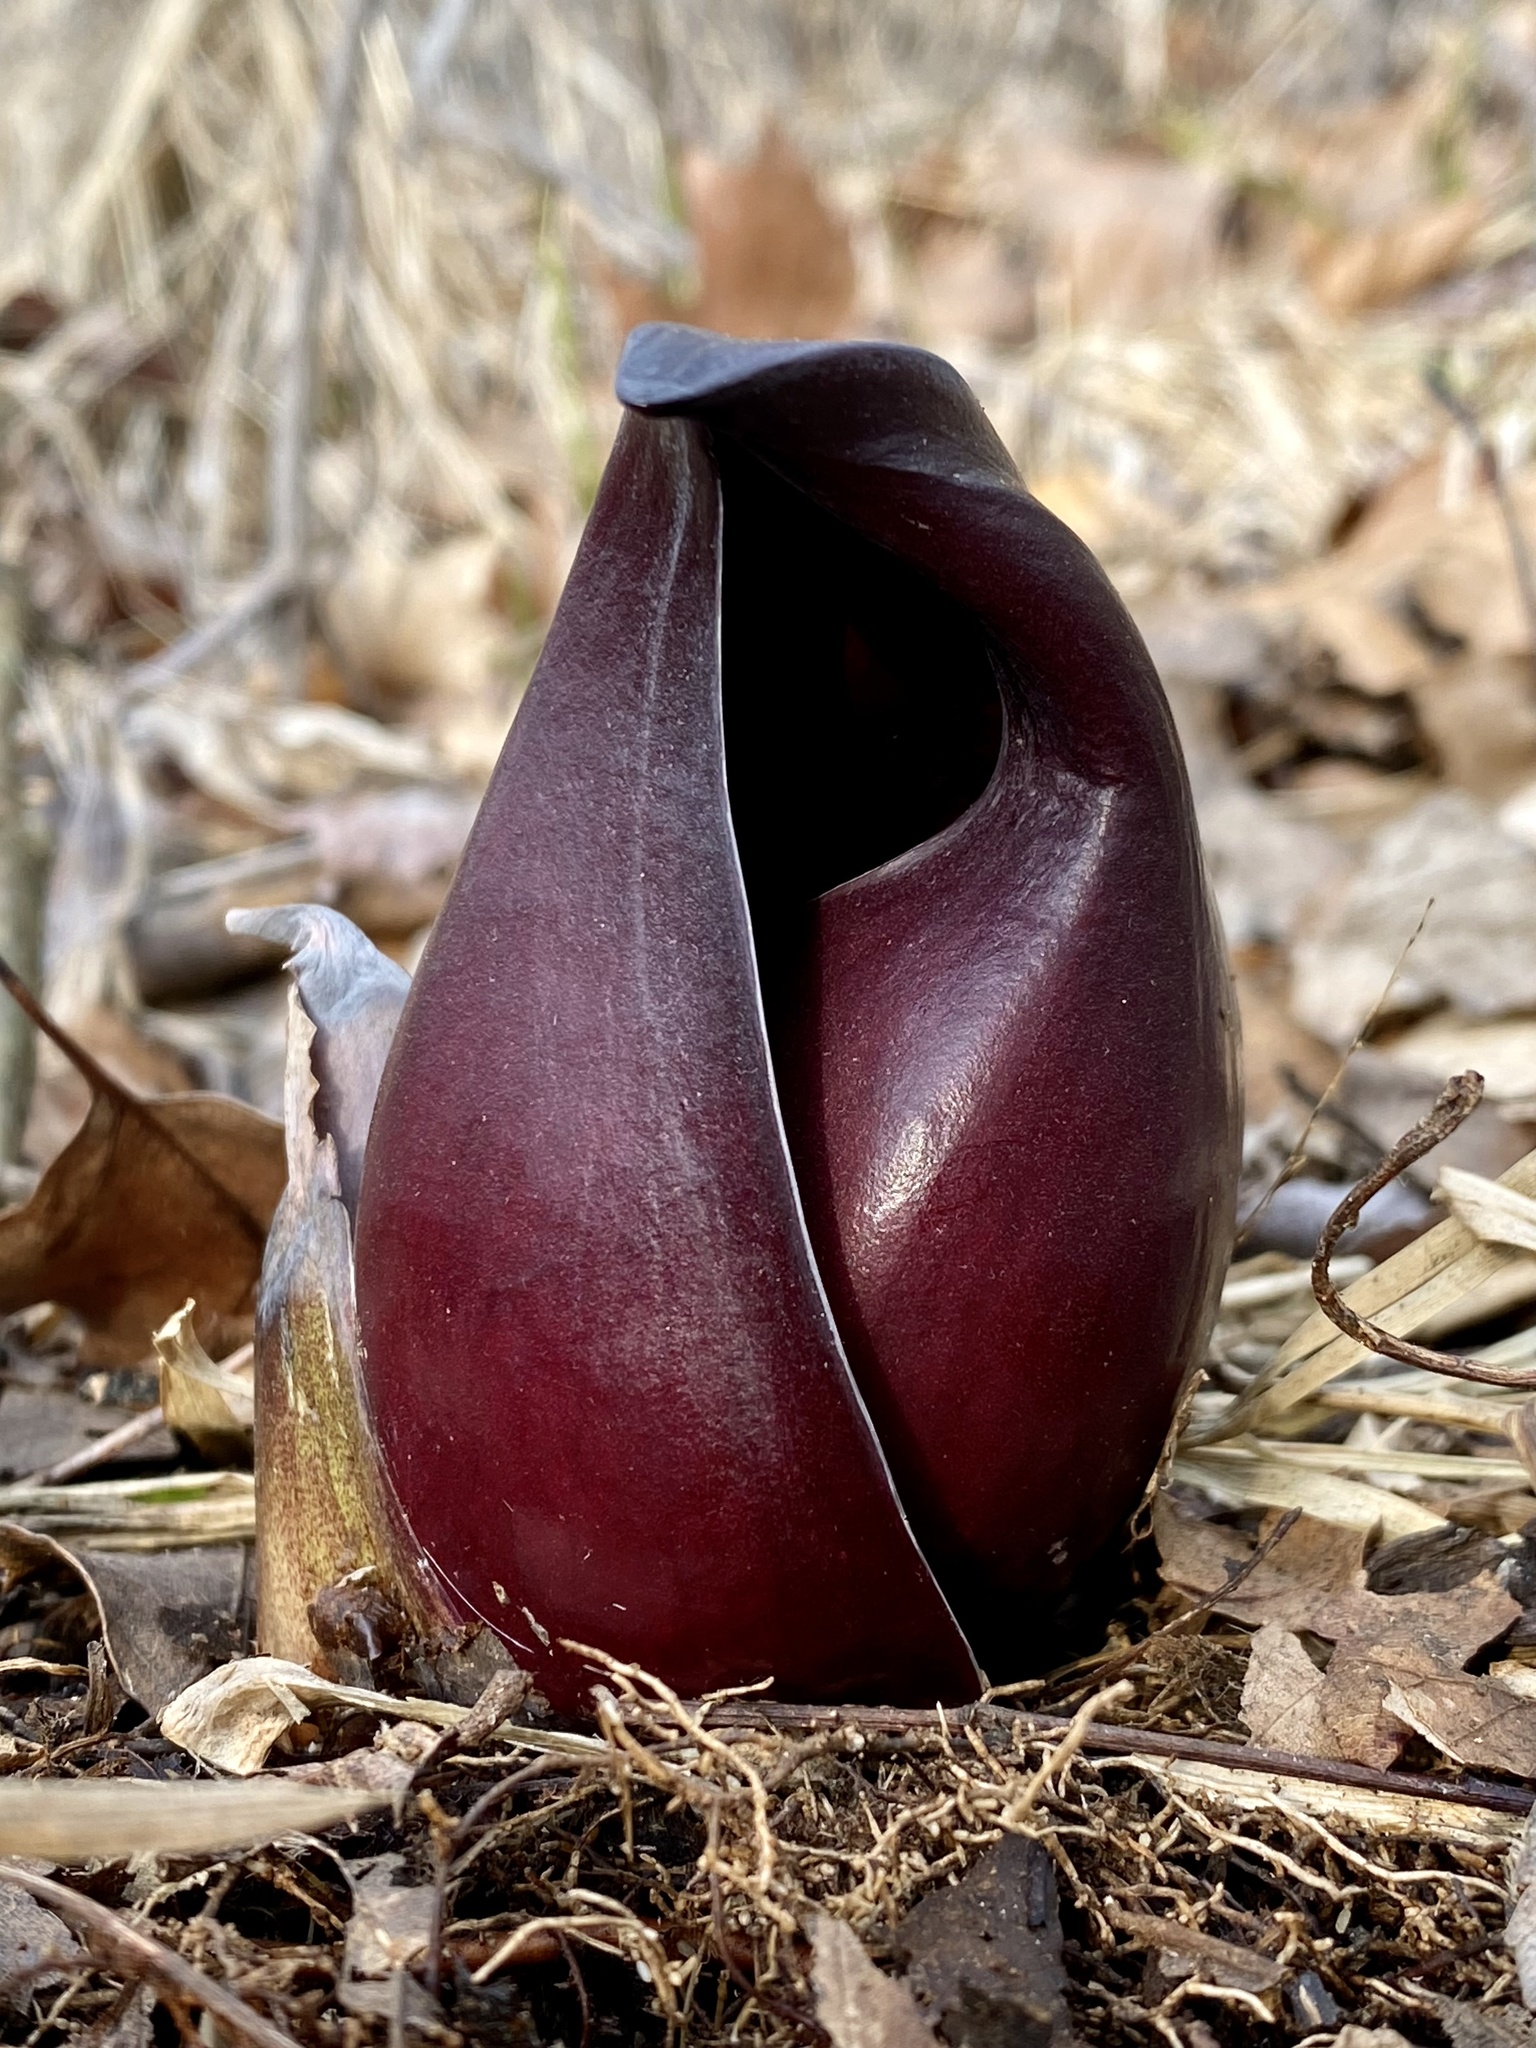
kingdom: Plantae
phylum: Tracheophyta
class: Liliopsida
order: Alismatales
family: Araceae
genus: Symplocarpus
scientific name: Symplocarpus foetidus
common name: Eastern skunk cabbage
